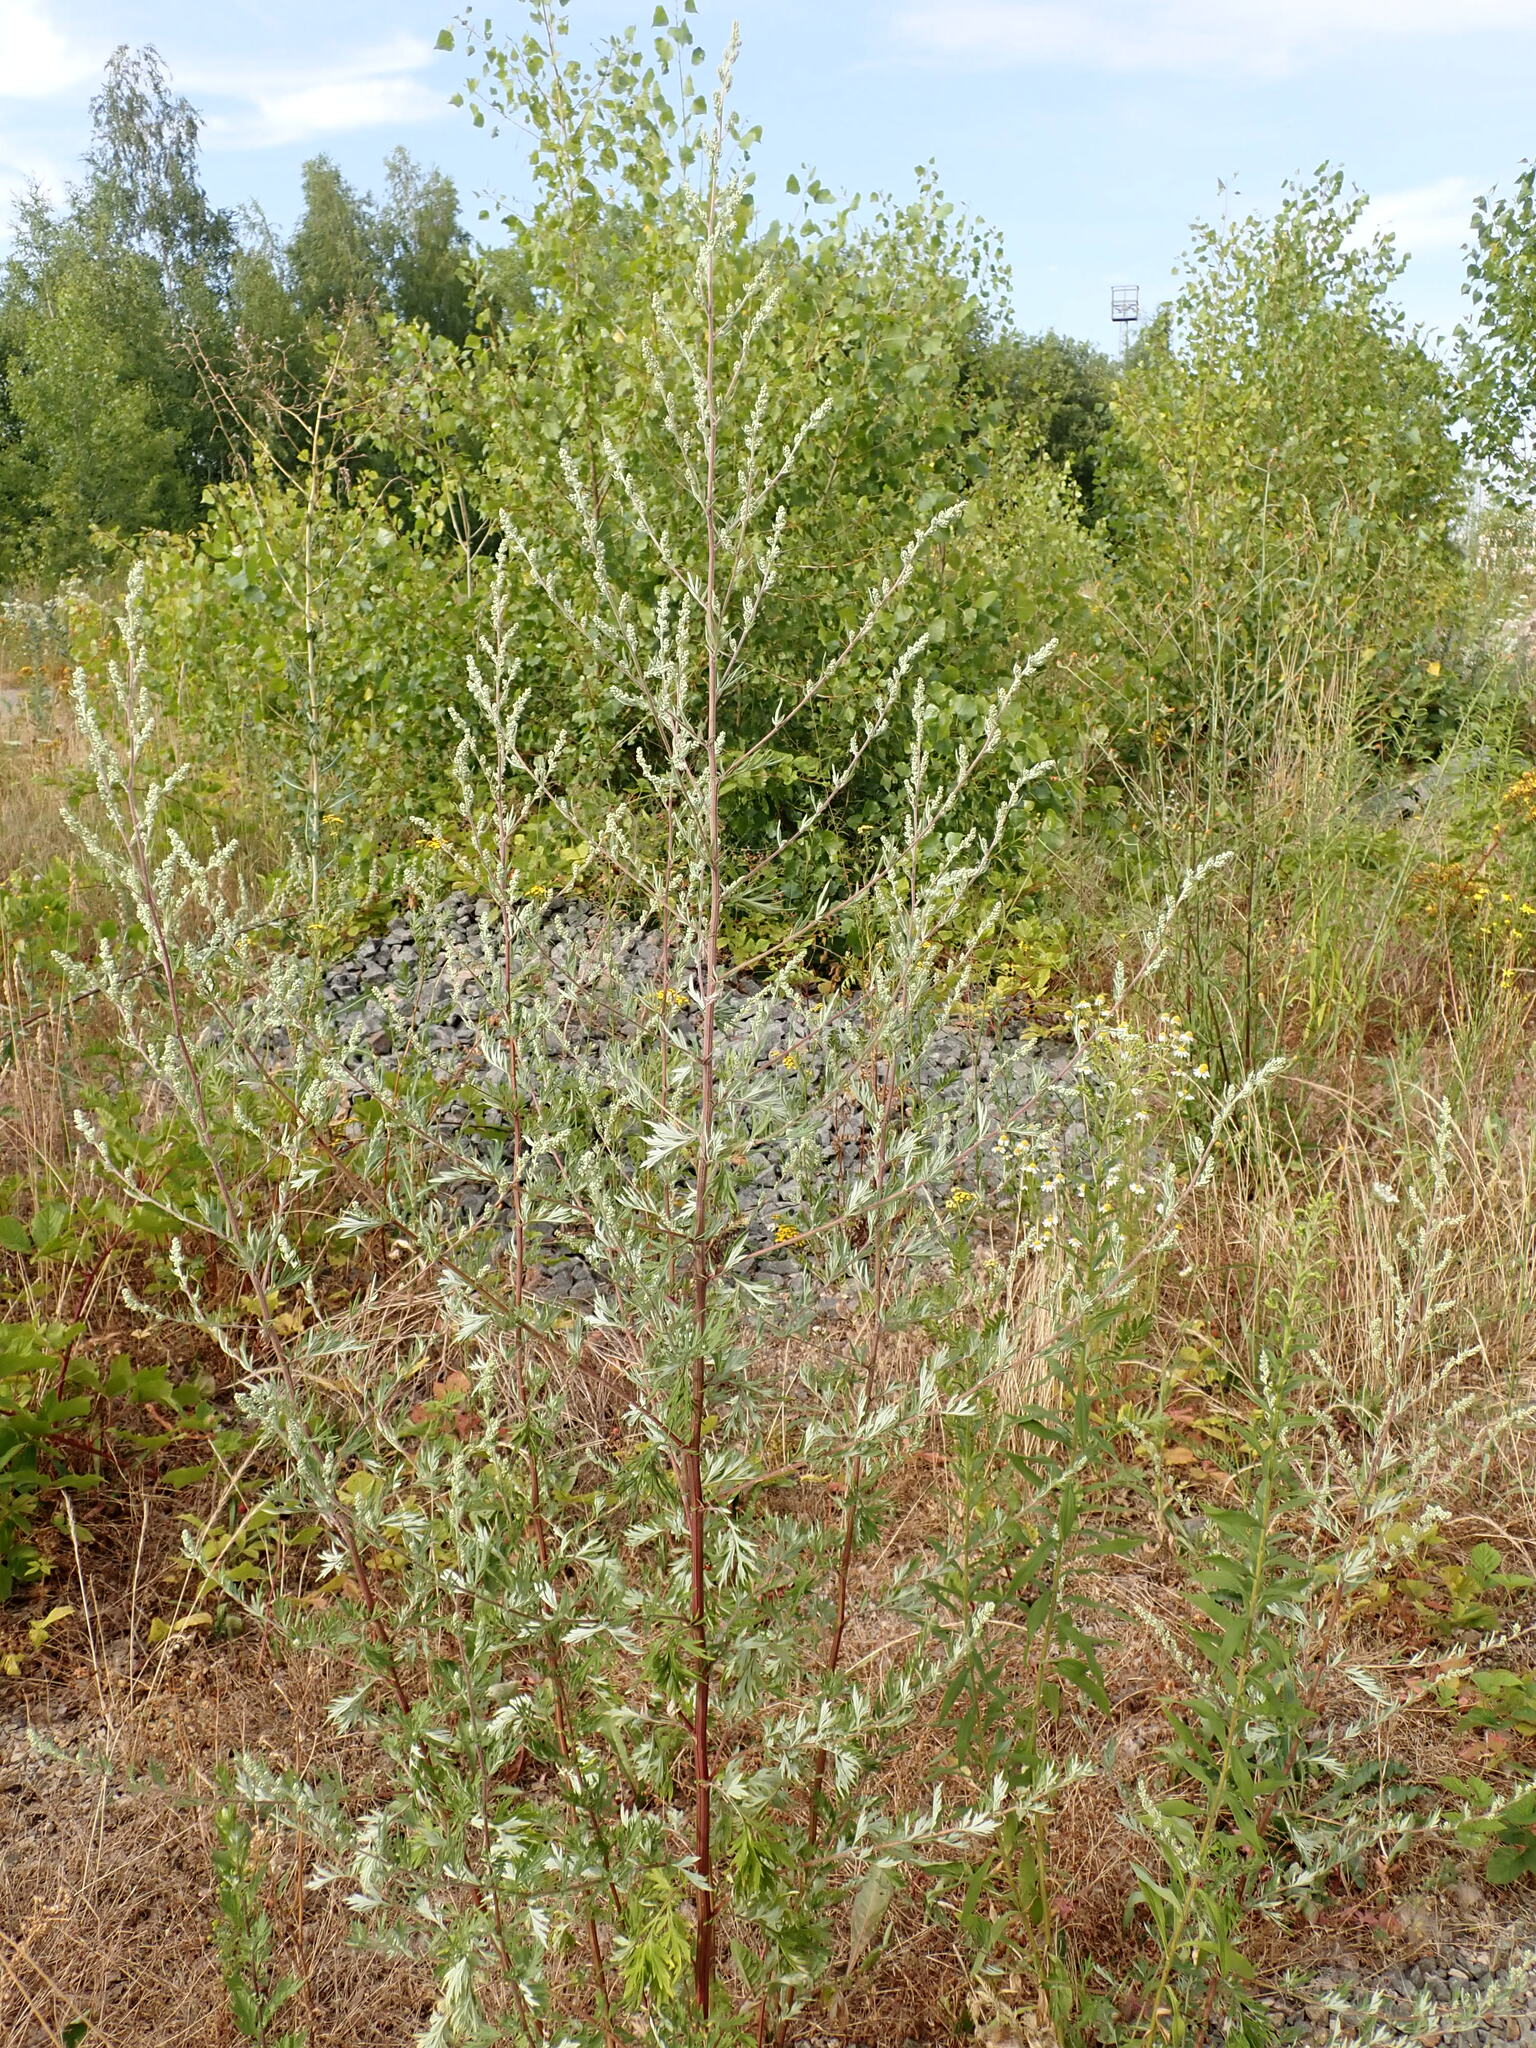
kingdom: Plantae
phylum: Tracheophyta
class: Magnoliopsida
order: Asterales
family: Asteraceae
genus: Artemisia
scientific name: Artemisia vulgaris
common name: Mugwort
